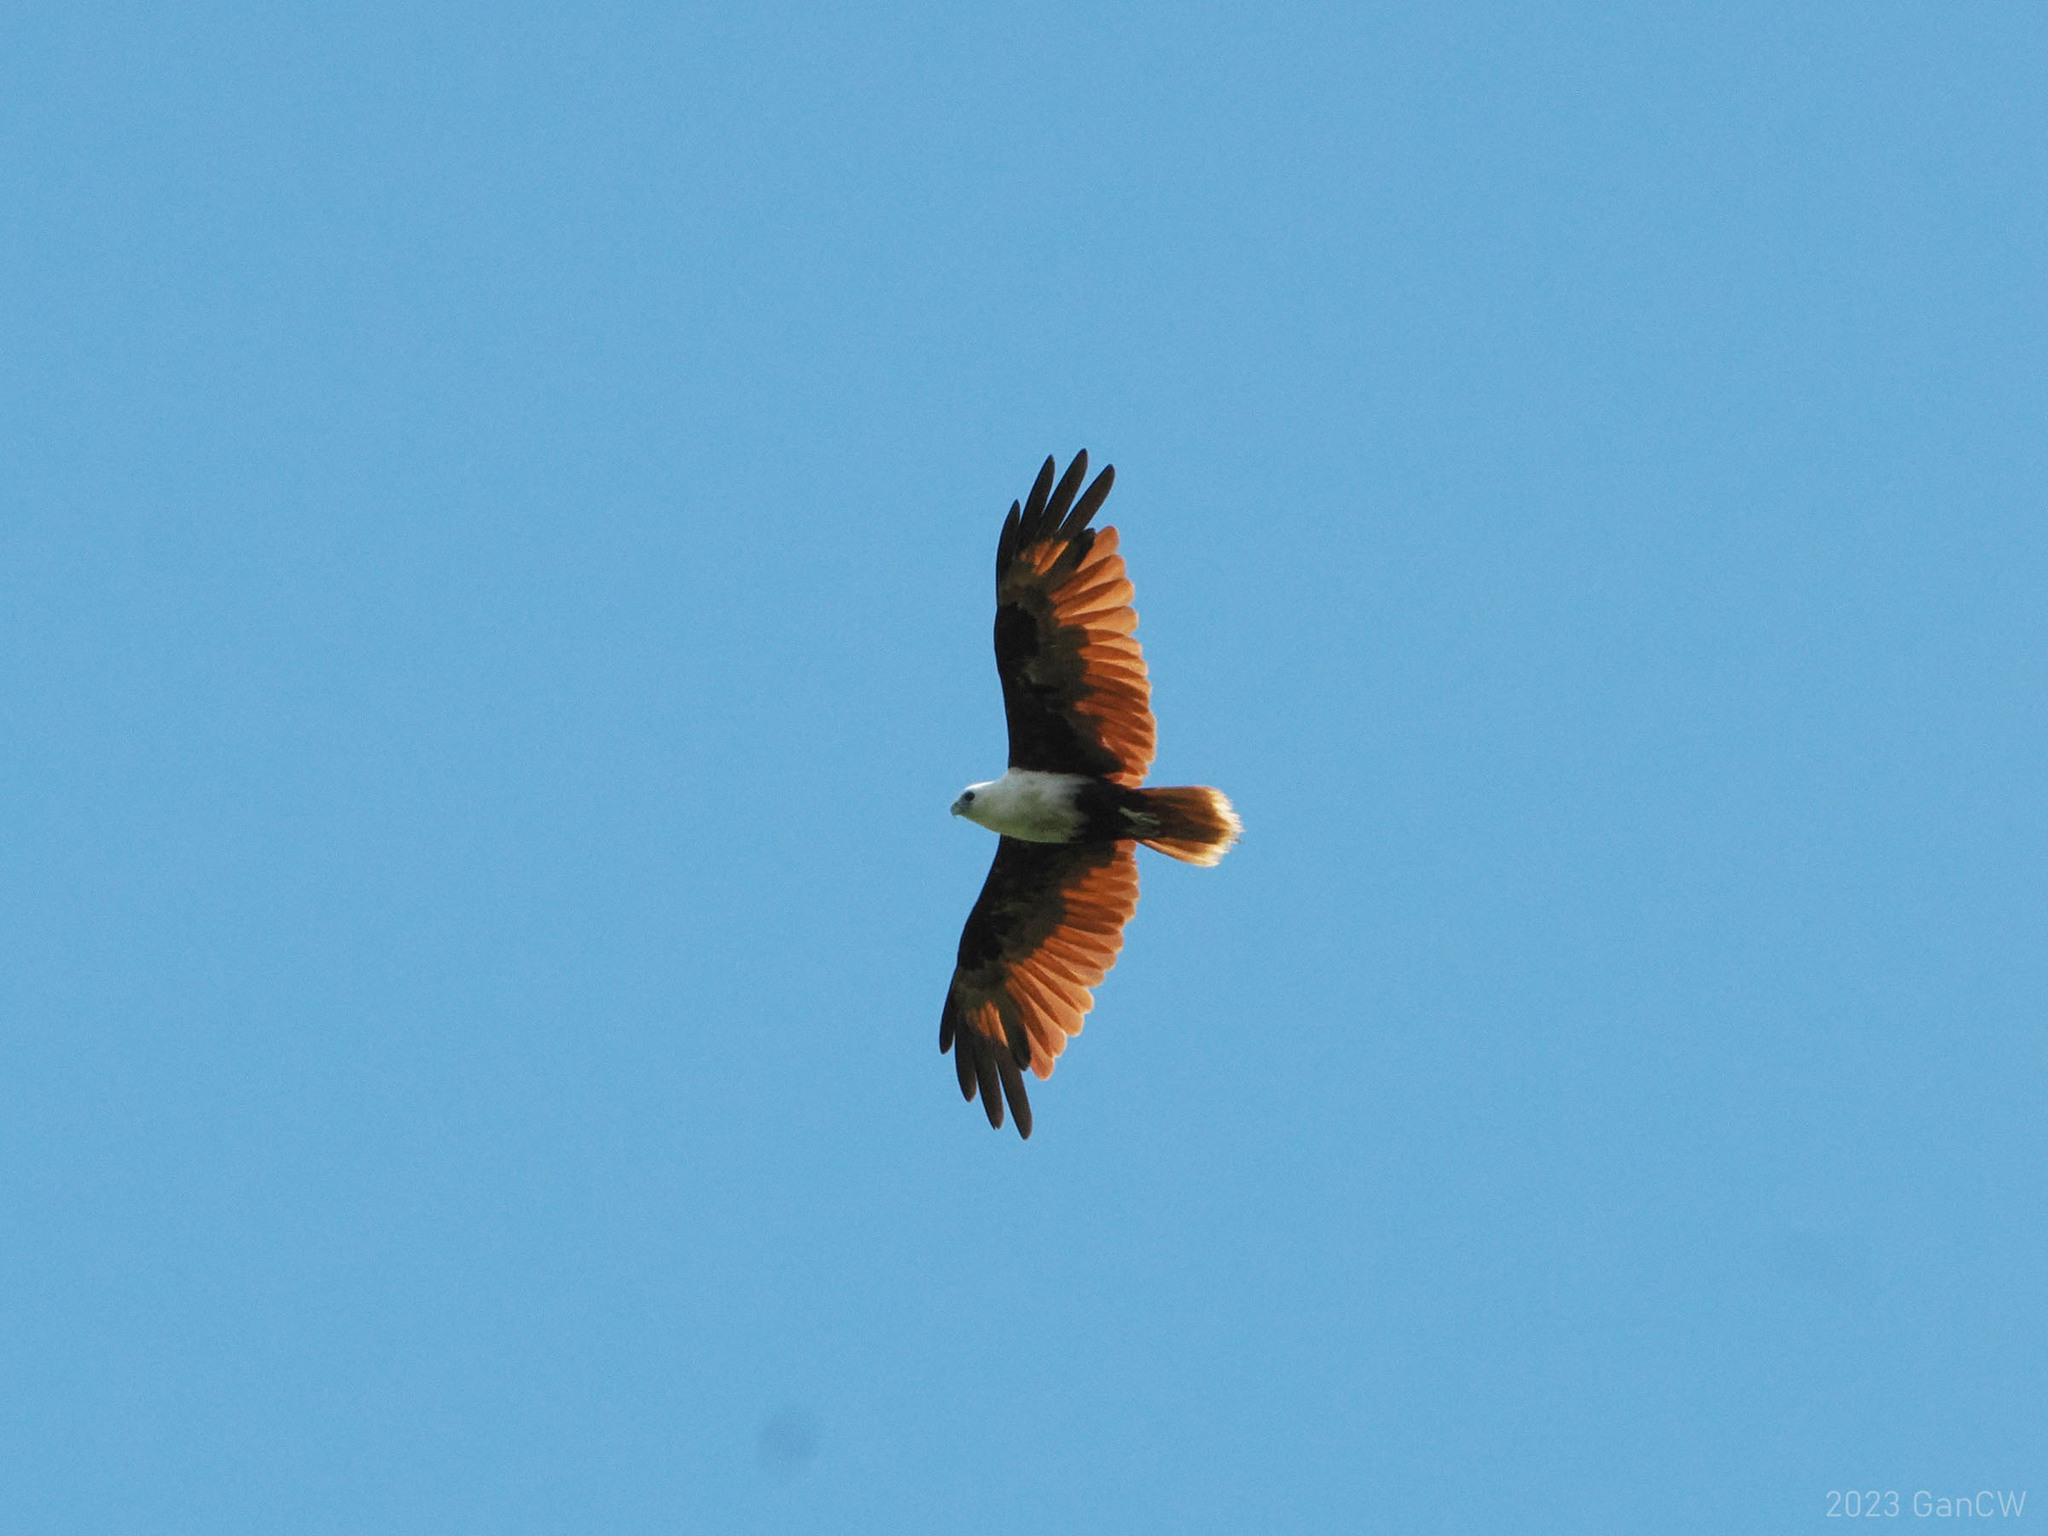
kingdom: Animalia
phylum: Chordata
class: Aves
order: Accipitriformes
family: Accipitridae
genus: Haliastur
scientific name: Haliastur indus
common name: Brahminy kite
